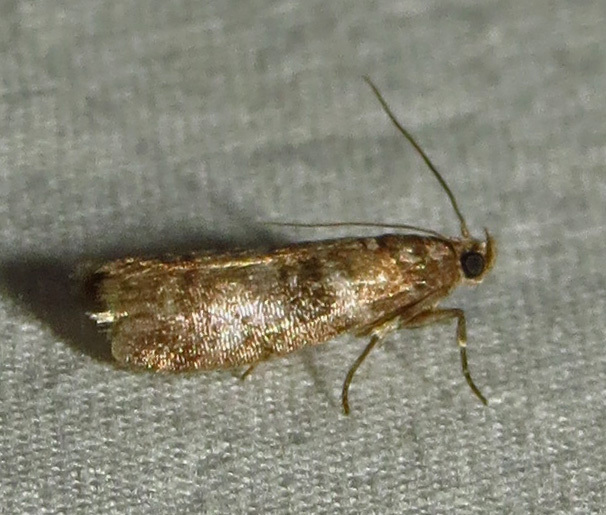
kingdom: Animalia
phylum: Arthropoda
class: Insecta
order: Lepidoptera
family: Pyralidae
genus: Sciota
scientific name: Sciota uvinella
